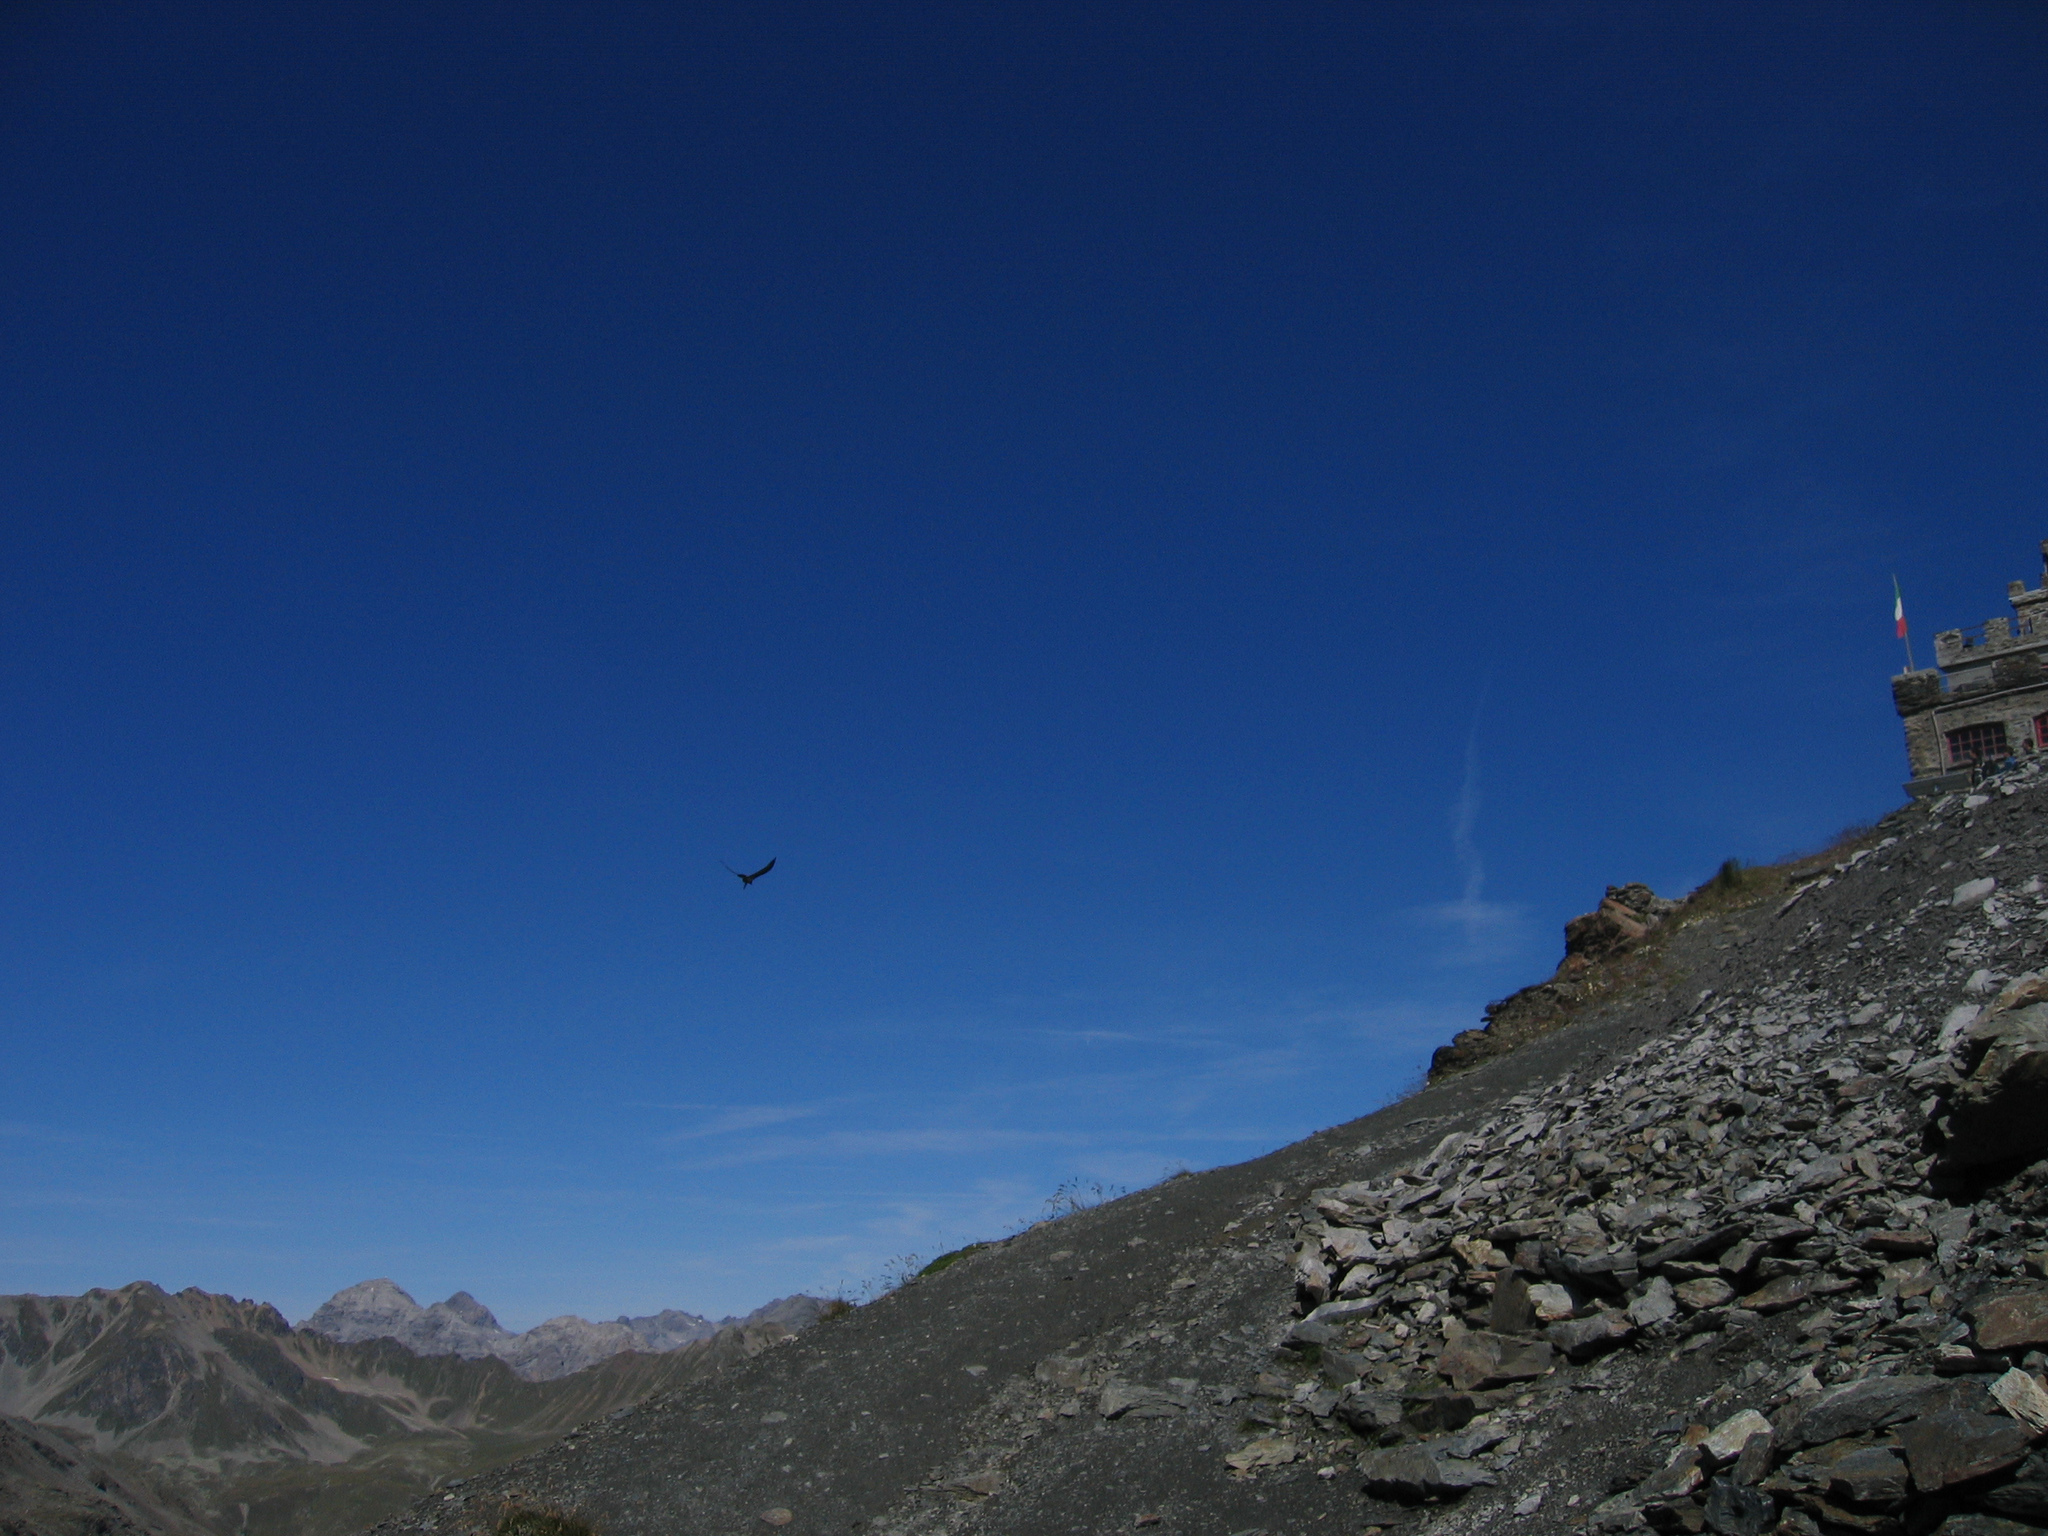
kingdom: Animalia
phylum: Chordata
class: Aves
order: Accipitriformes
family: Accipitridae
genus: Gypaetus
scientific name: Gypaetus barbatus
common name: Bearded vulture
